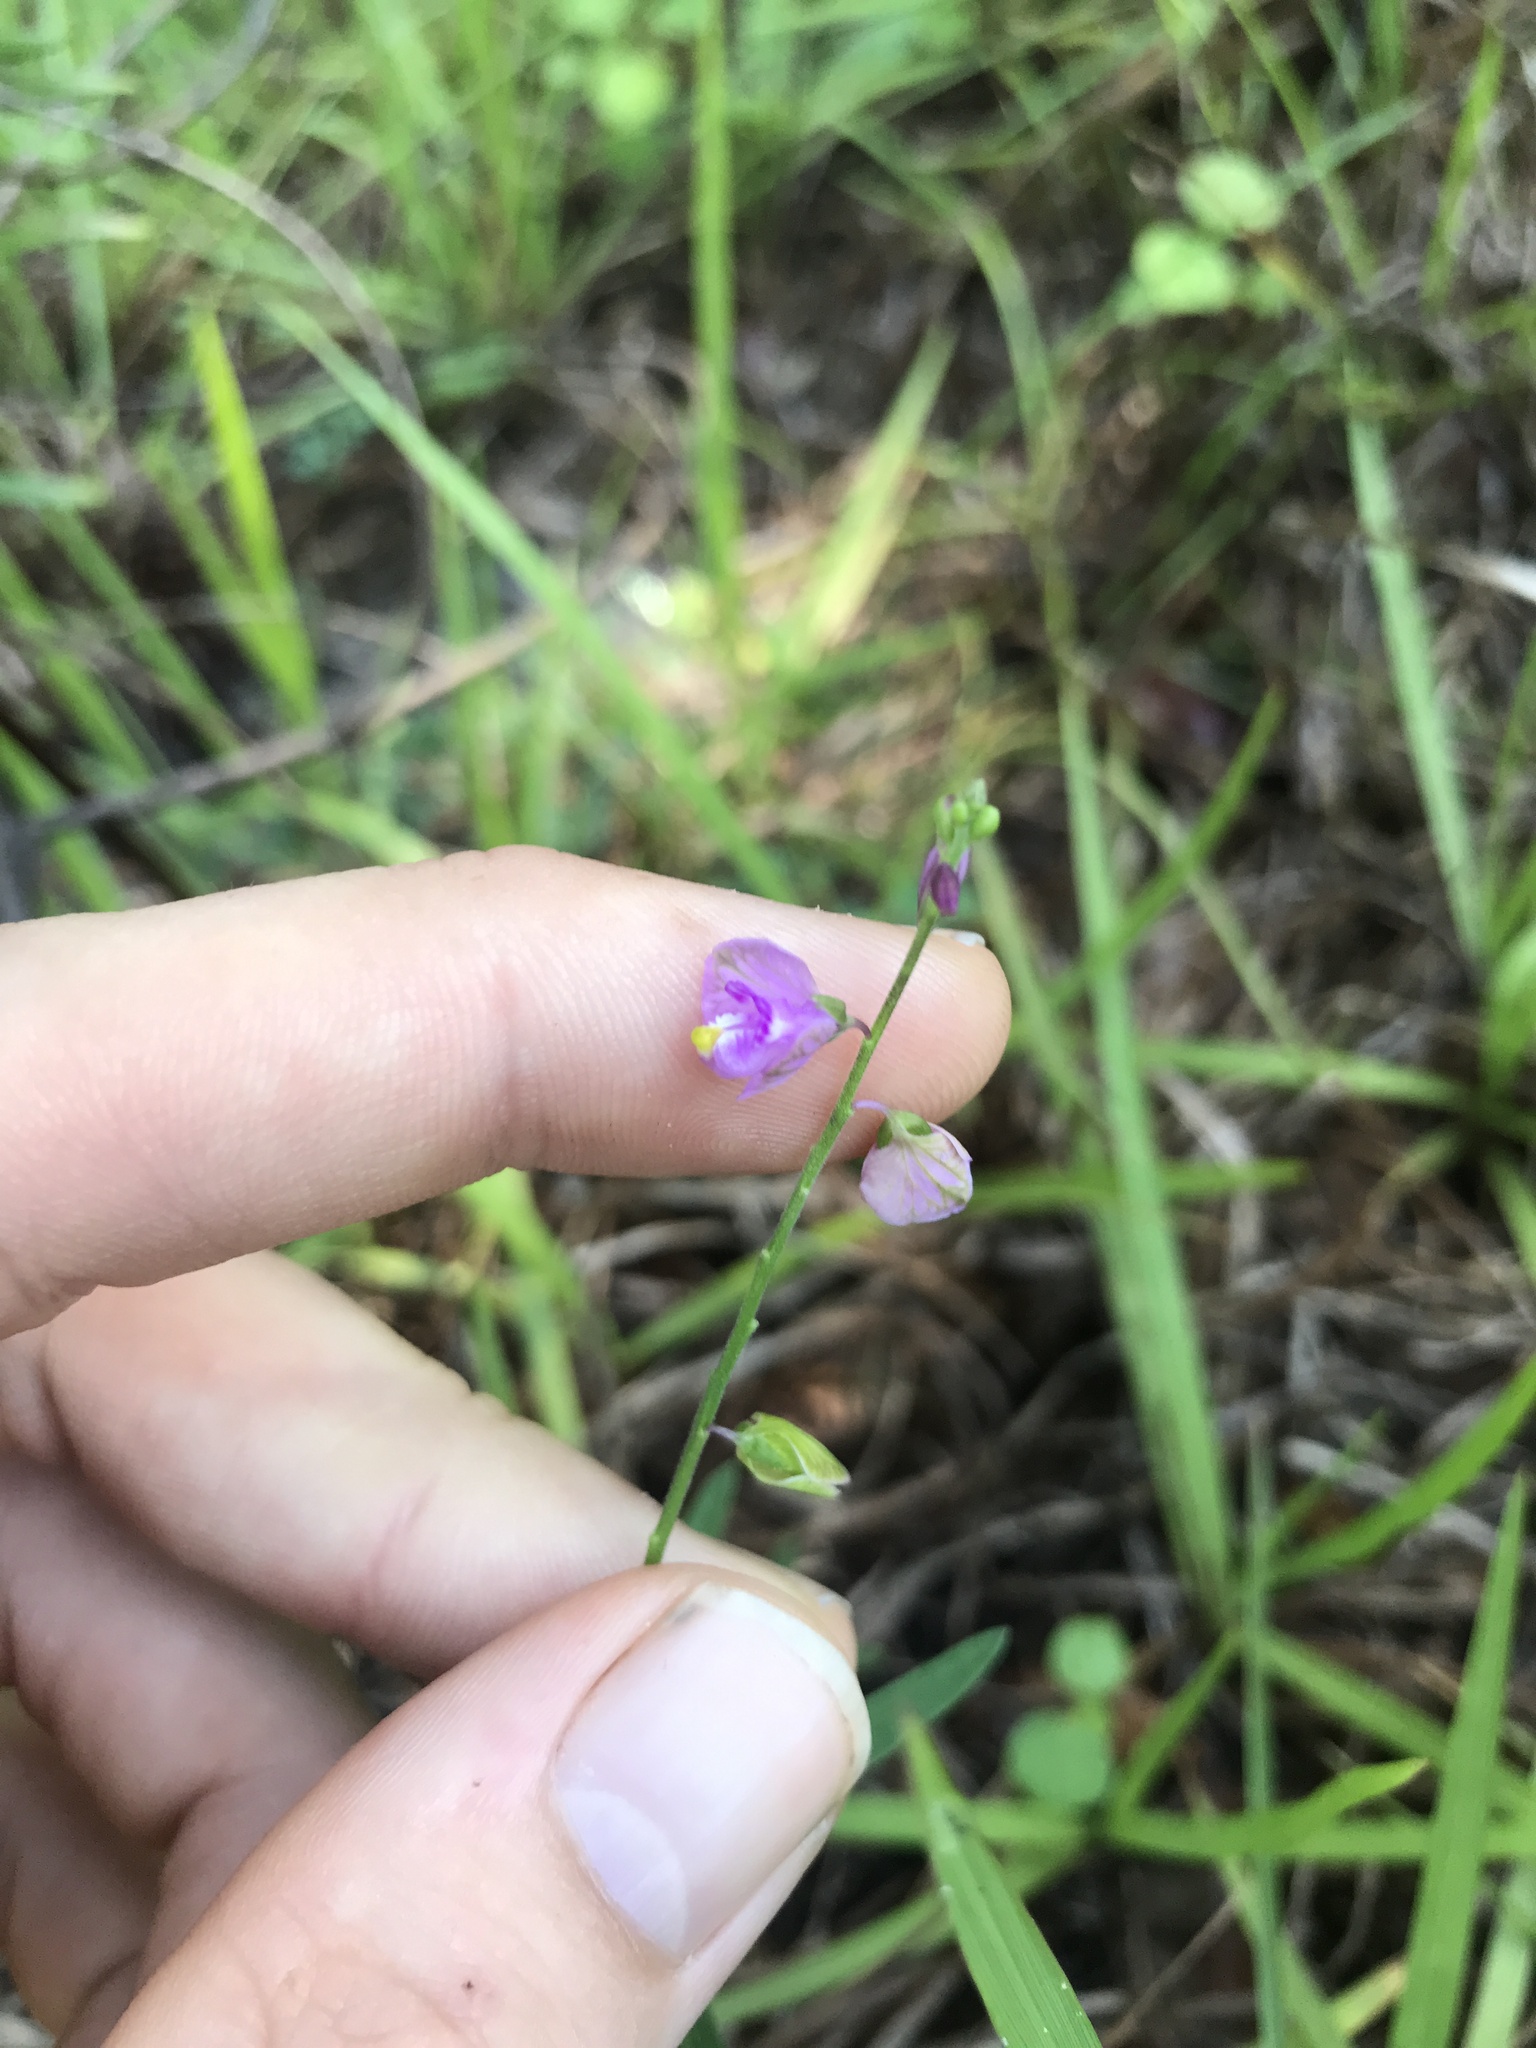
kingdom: Plantae
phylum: Tracheophyta
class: Magnoliopsida
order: Fabales
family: Polygalaceae
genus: Asemeia
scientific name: Asemeia grandiflora
